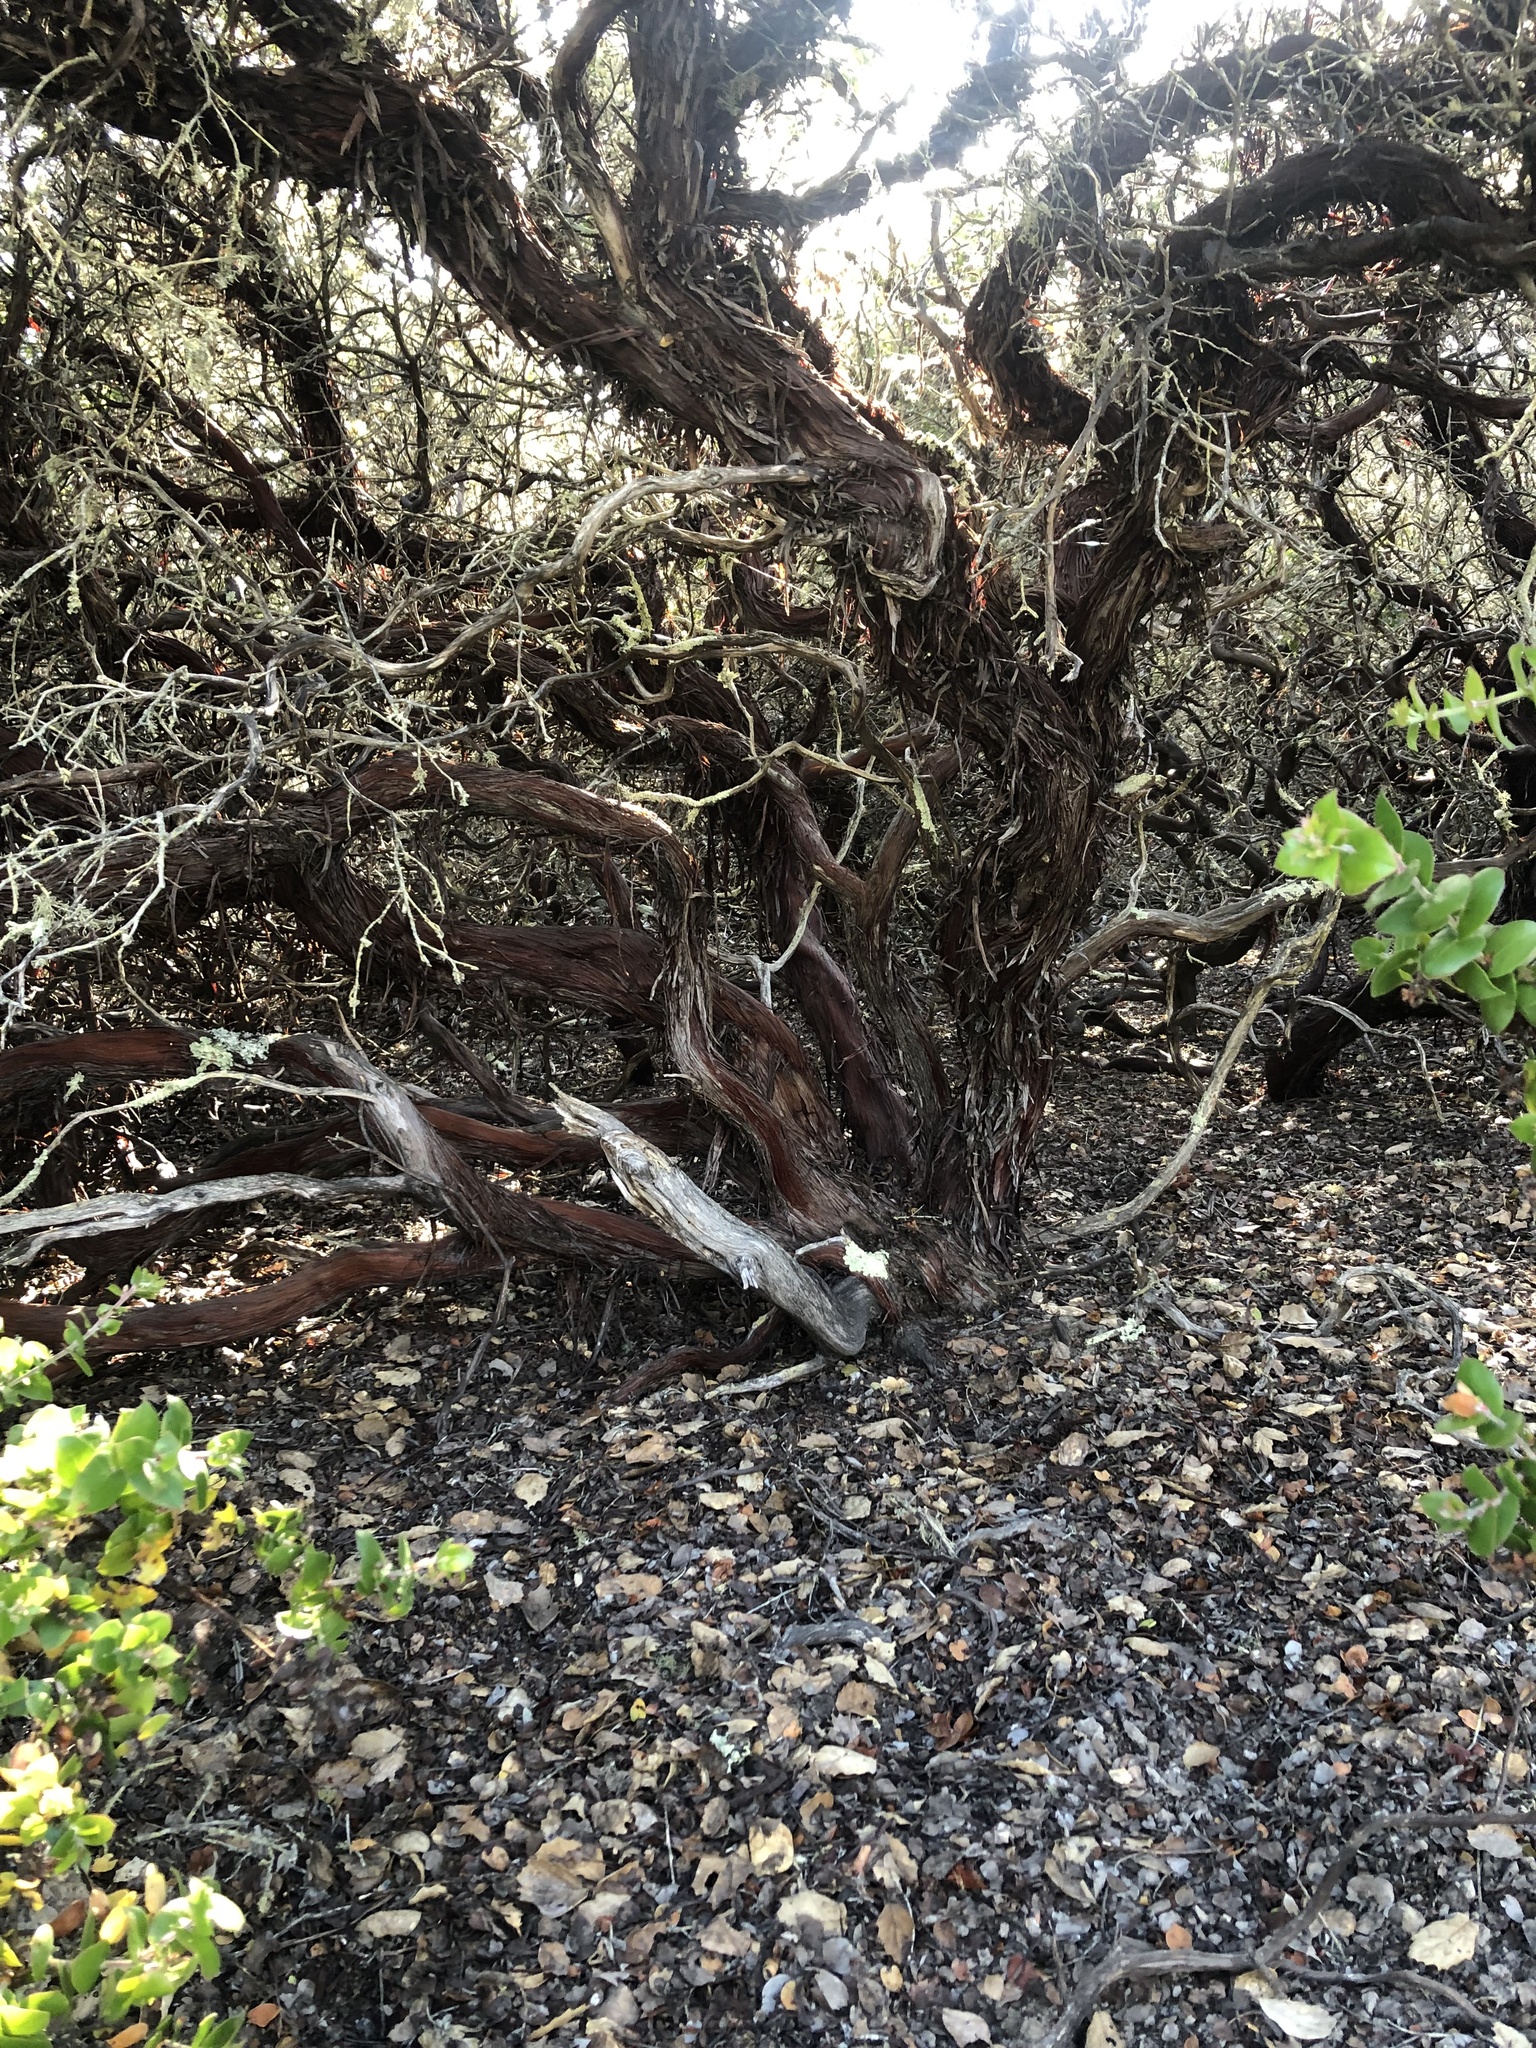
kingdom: Plantae
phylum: Tracheophyta
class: Magnoliopsida
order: Ericales
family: Ericaceae
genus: Arctostaphylos
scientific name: Arctostaphylos osoensis
